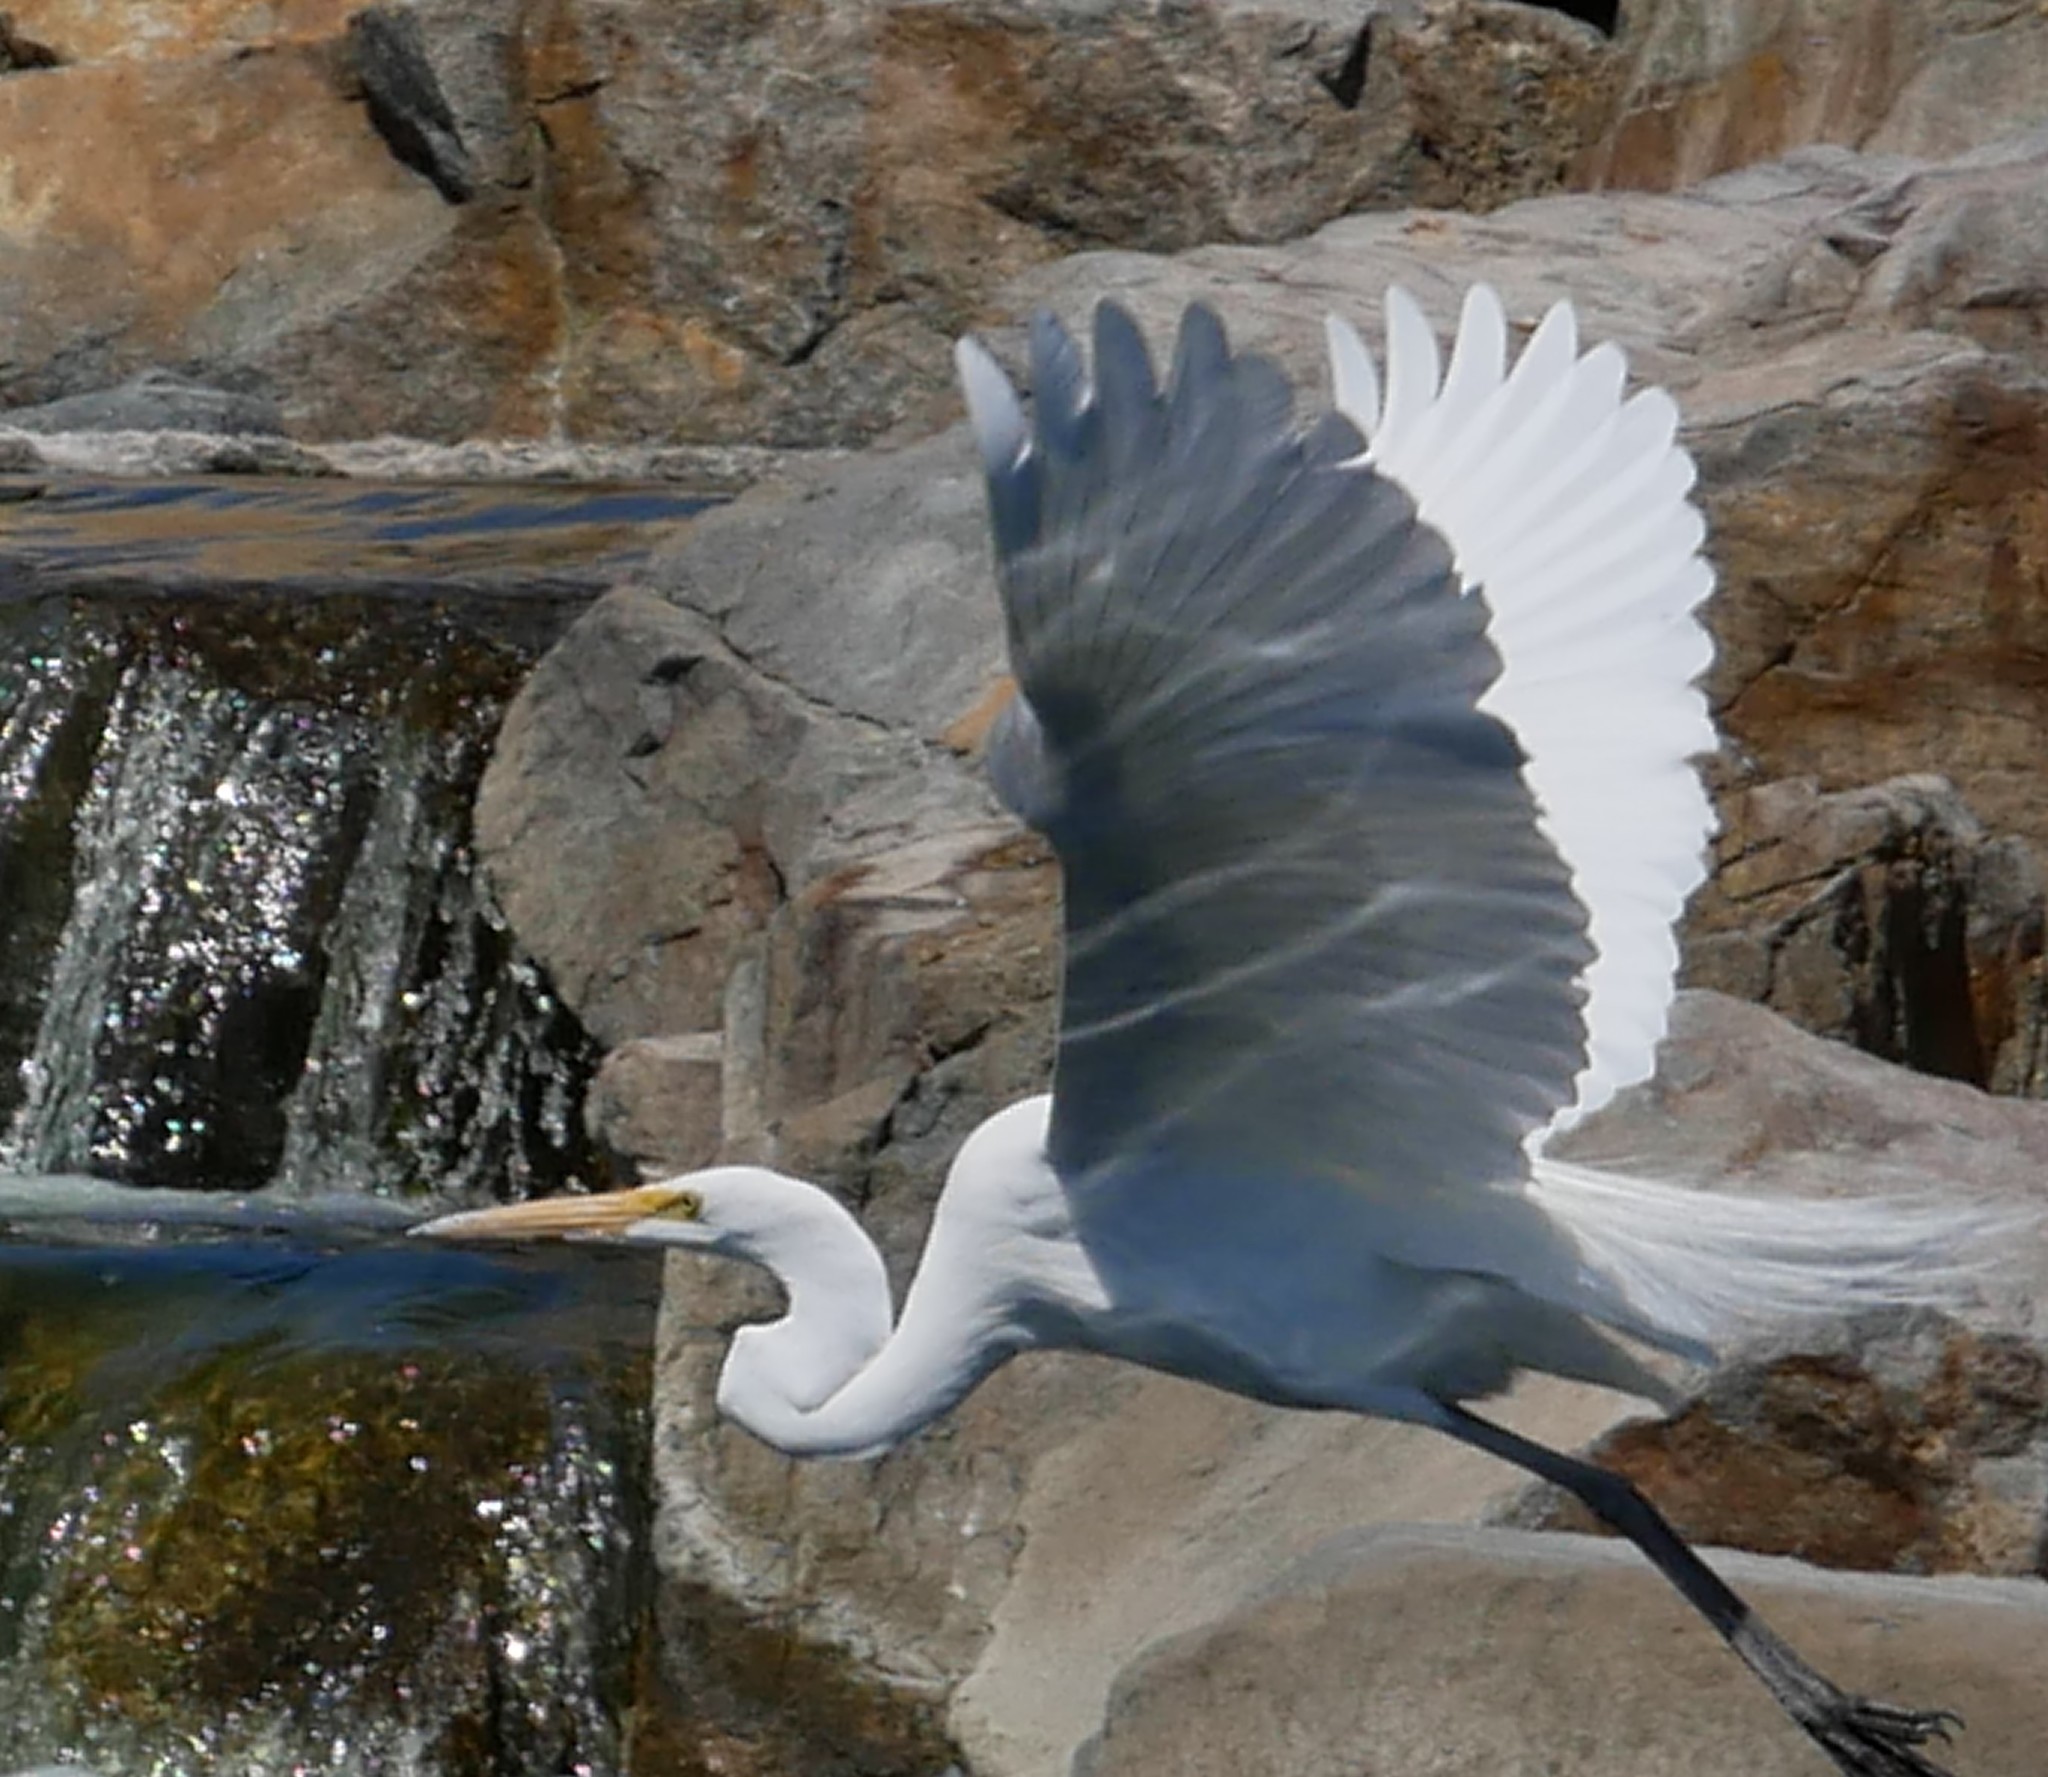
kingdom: Animalia
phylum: Chordata
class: Aves
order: Pelecaniformes
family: Ardeidae
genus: Ardea
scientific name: Ardea alba
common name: Great egret
